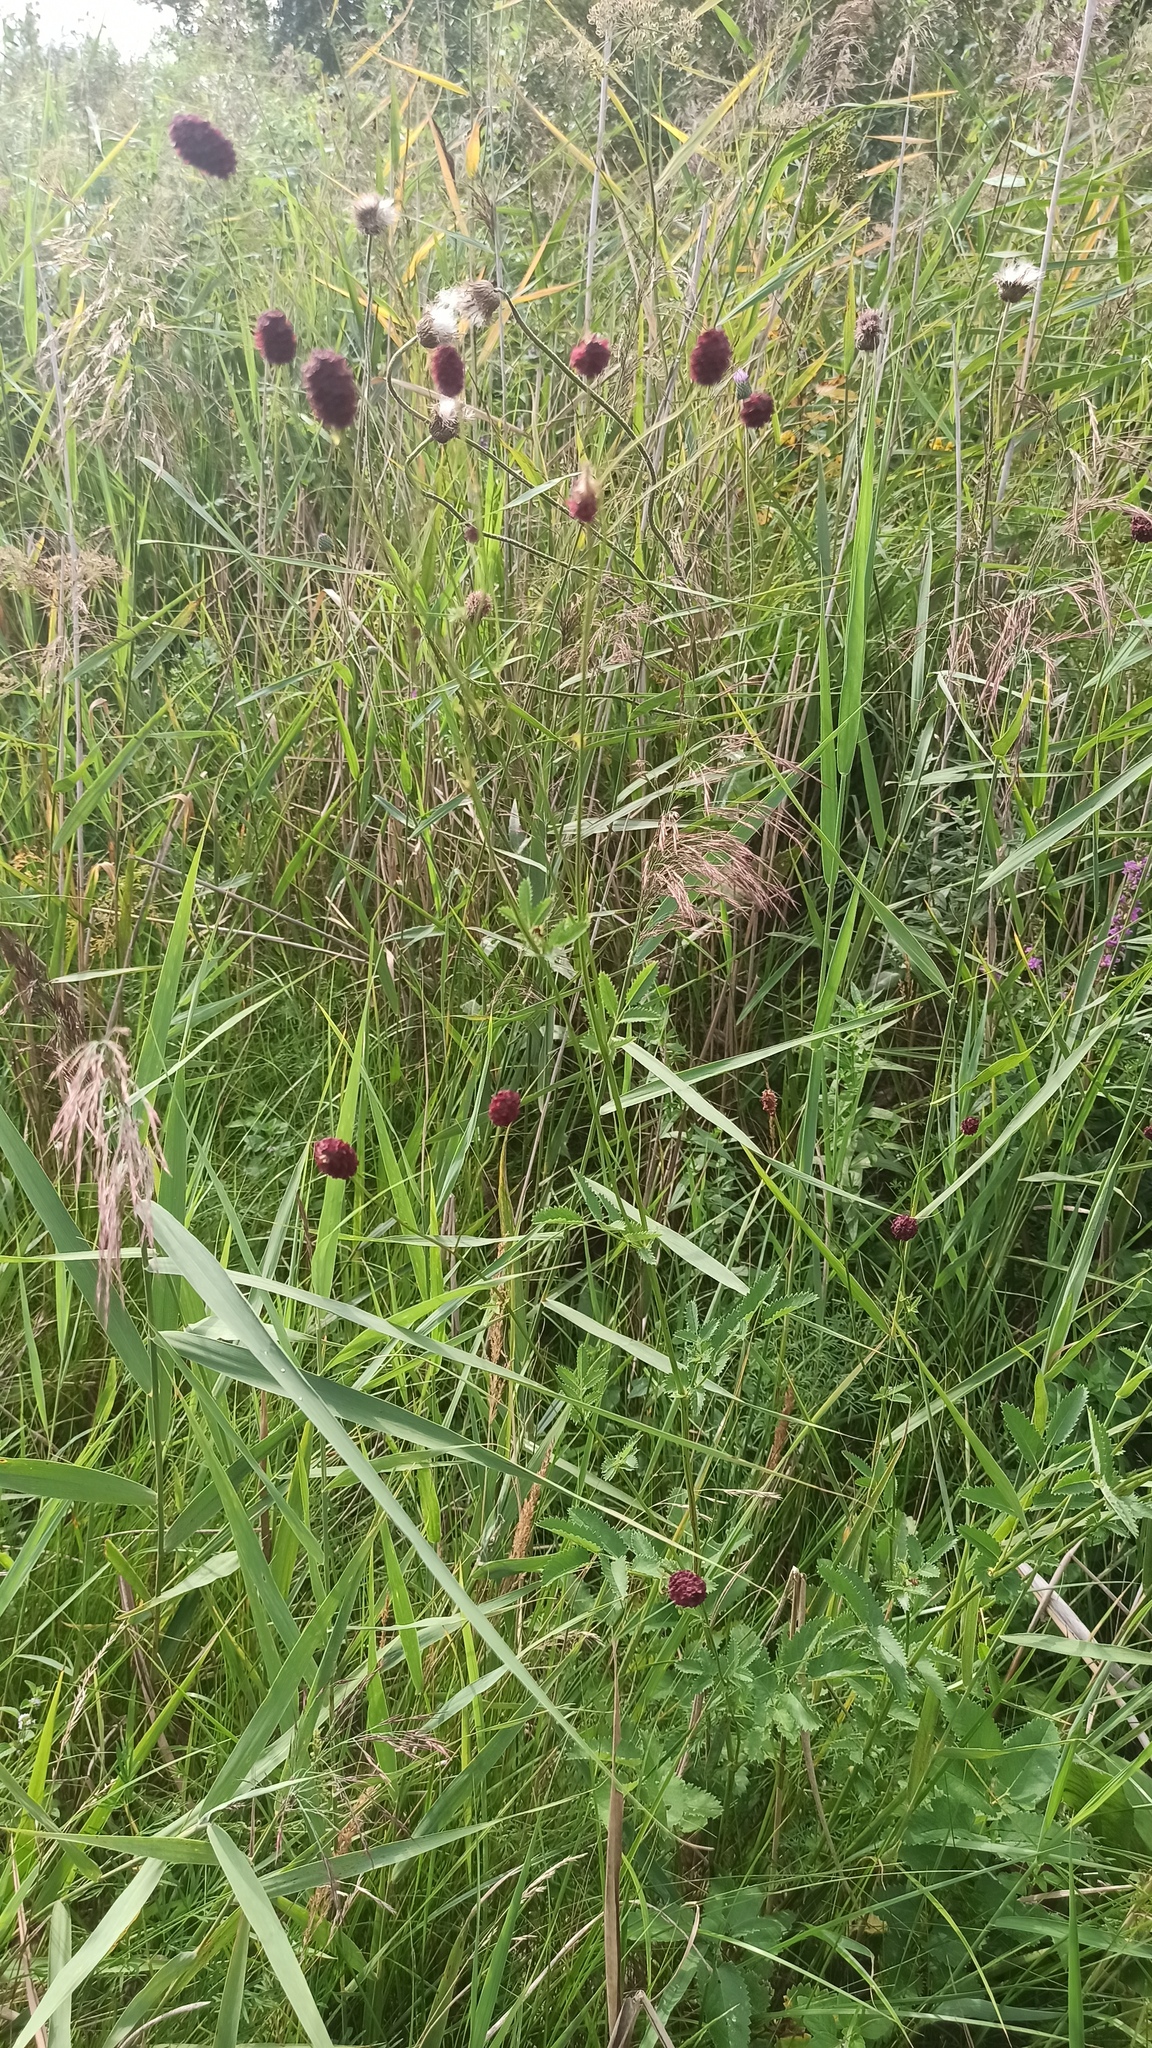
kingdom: Plantae
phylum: Tracheophyta
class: Magnoliopsida
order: Rosales
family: Rosaceae
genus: Sanguisorba
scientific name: Sanguisorba officinalis
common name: Great burnet
